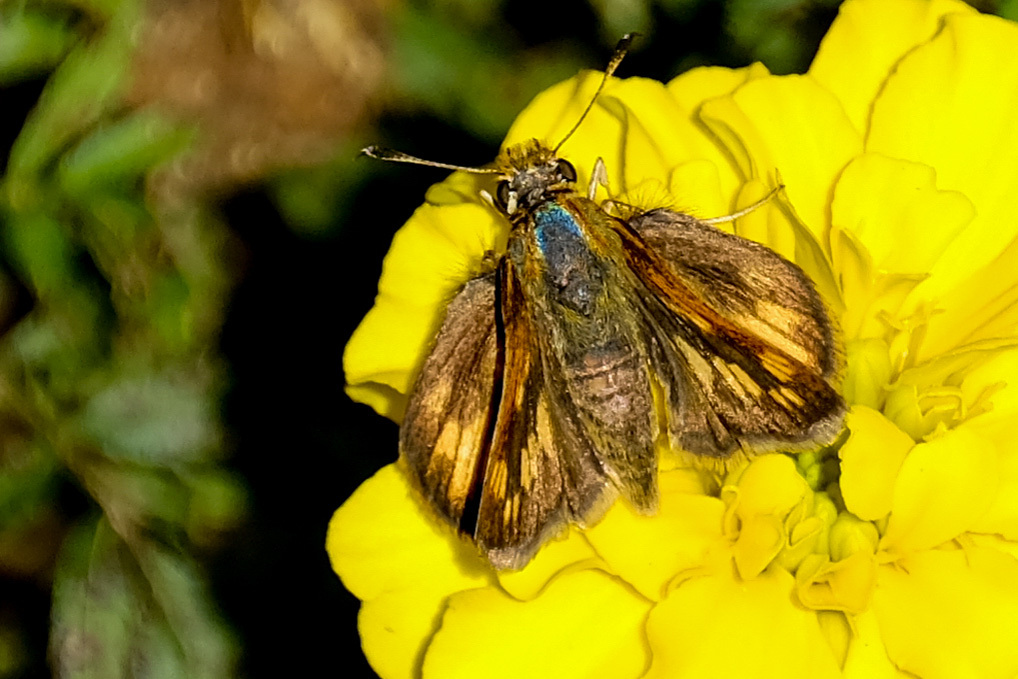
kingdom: Animalia
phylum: Arthropoda
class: Insecta
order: Lepidoptera
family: Hesperiidae
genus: Polites
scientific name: Polites coras
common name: Peck's skipper
